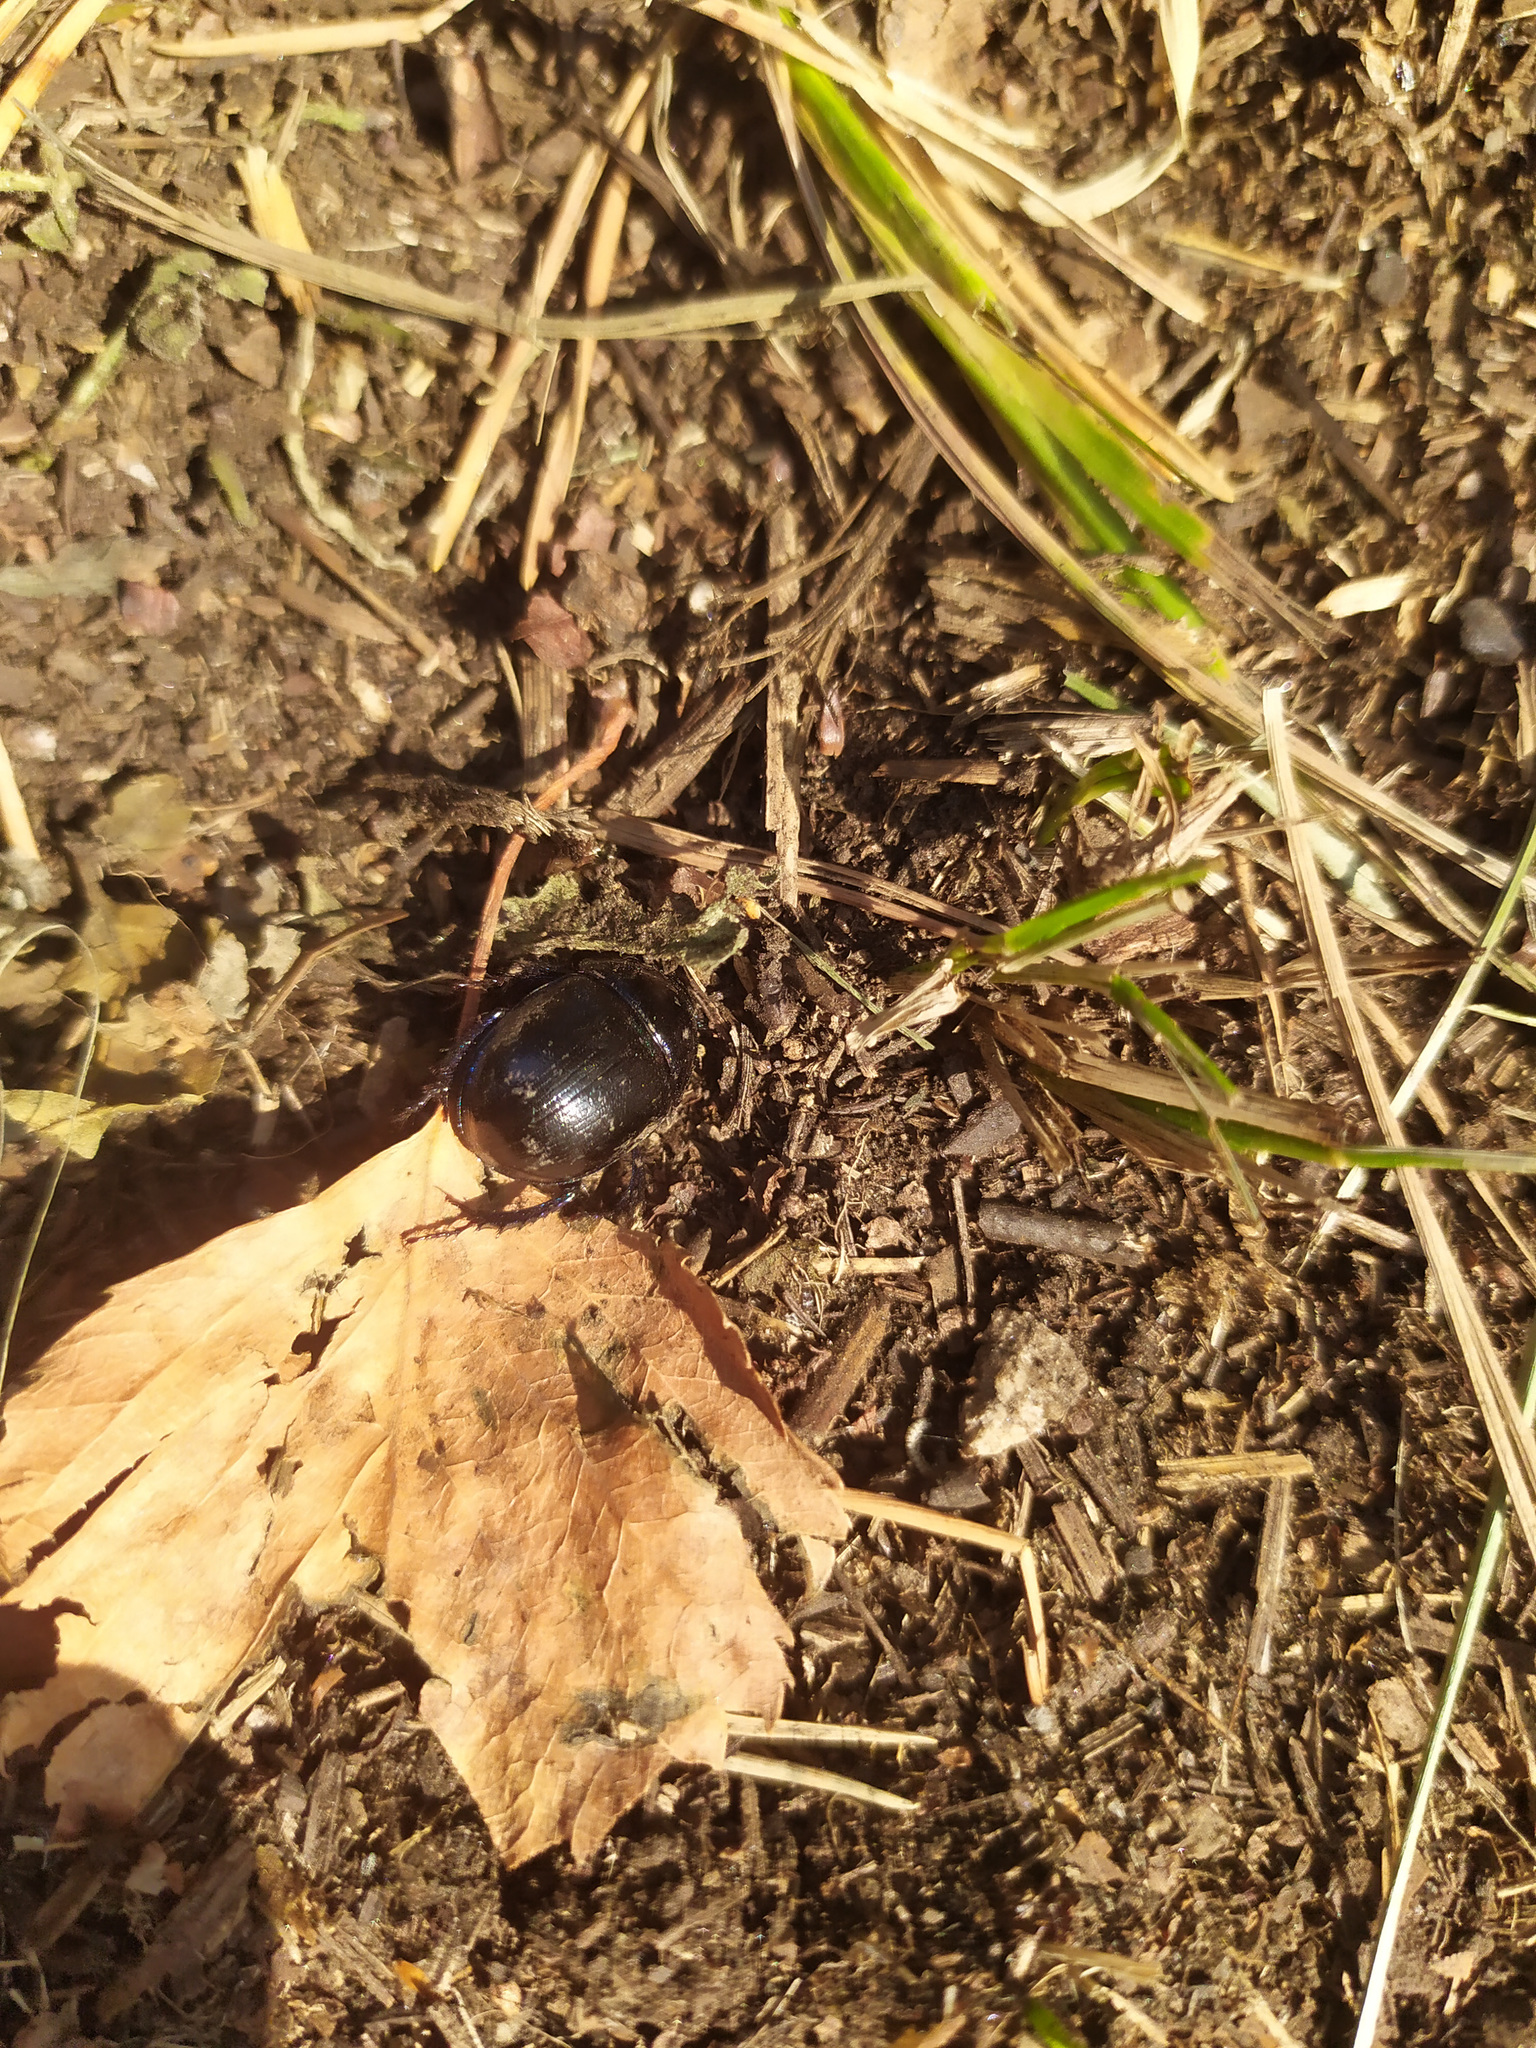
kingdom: Animalia
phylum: Arthropoda
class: Insecta
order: Coleoptera
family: Geotrupidae
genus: Anoplotrupes
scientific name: Anoplotrupes stercorosus
